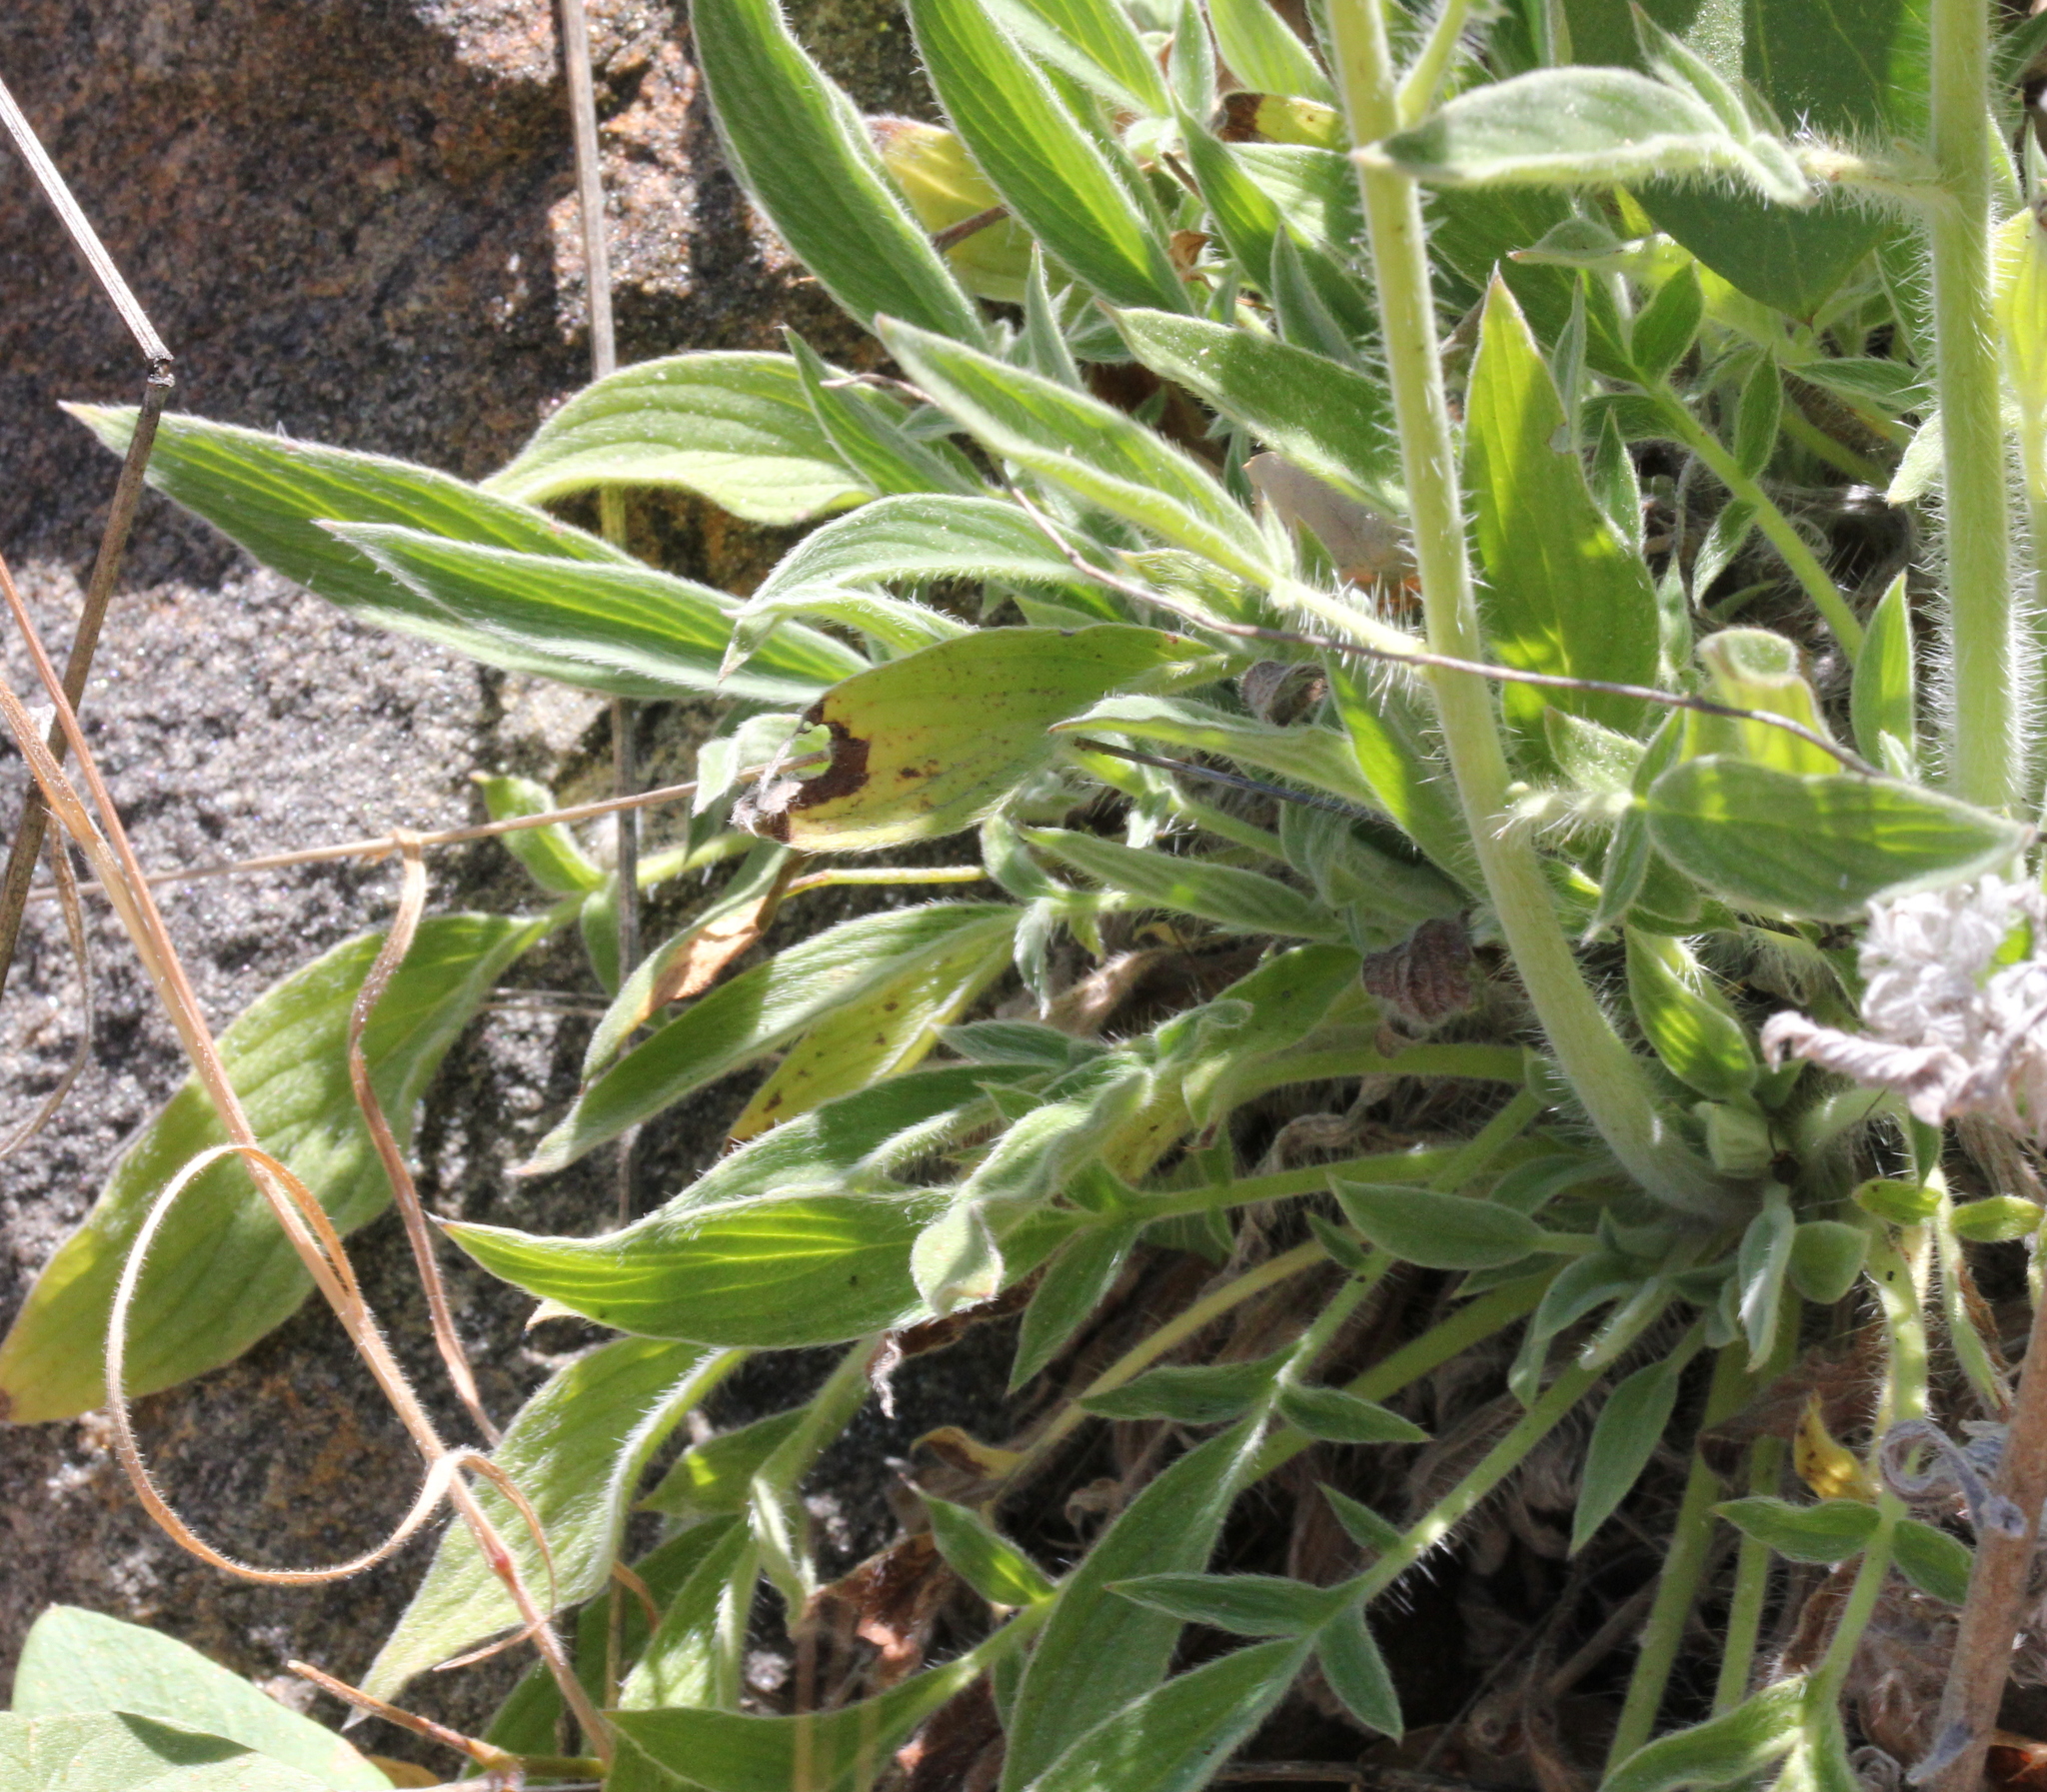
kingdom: Plantae
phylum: Tracheophyta
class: Magnoliopsida
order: Boraginales
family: Hydrophyllaceae
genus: Phacelia
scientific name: Phacelia imbricata
